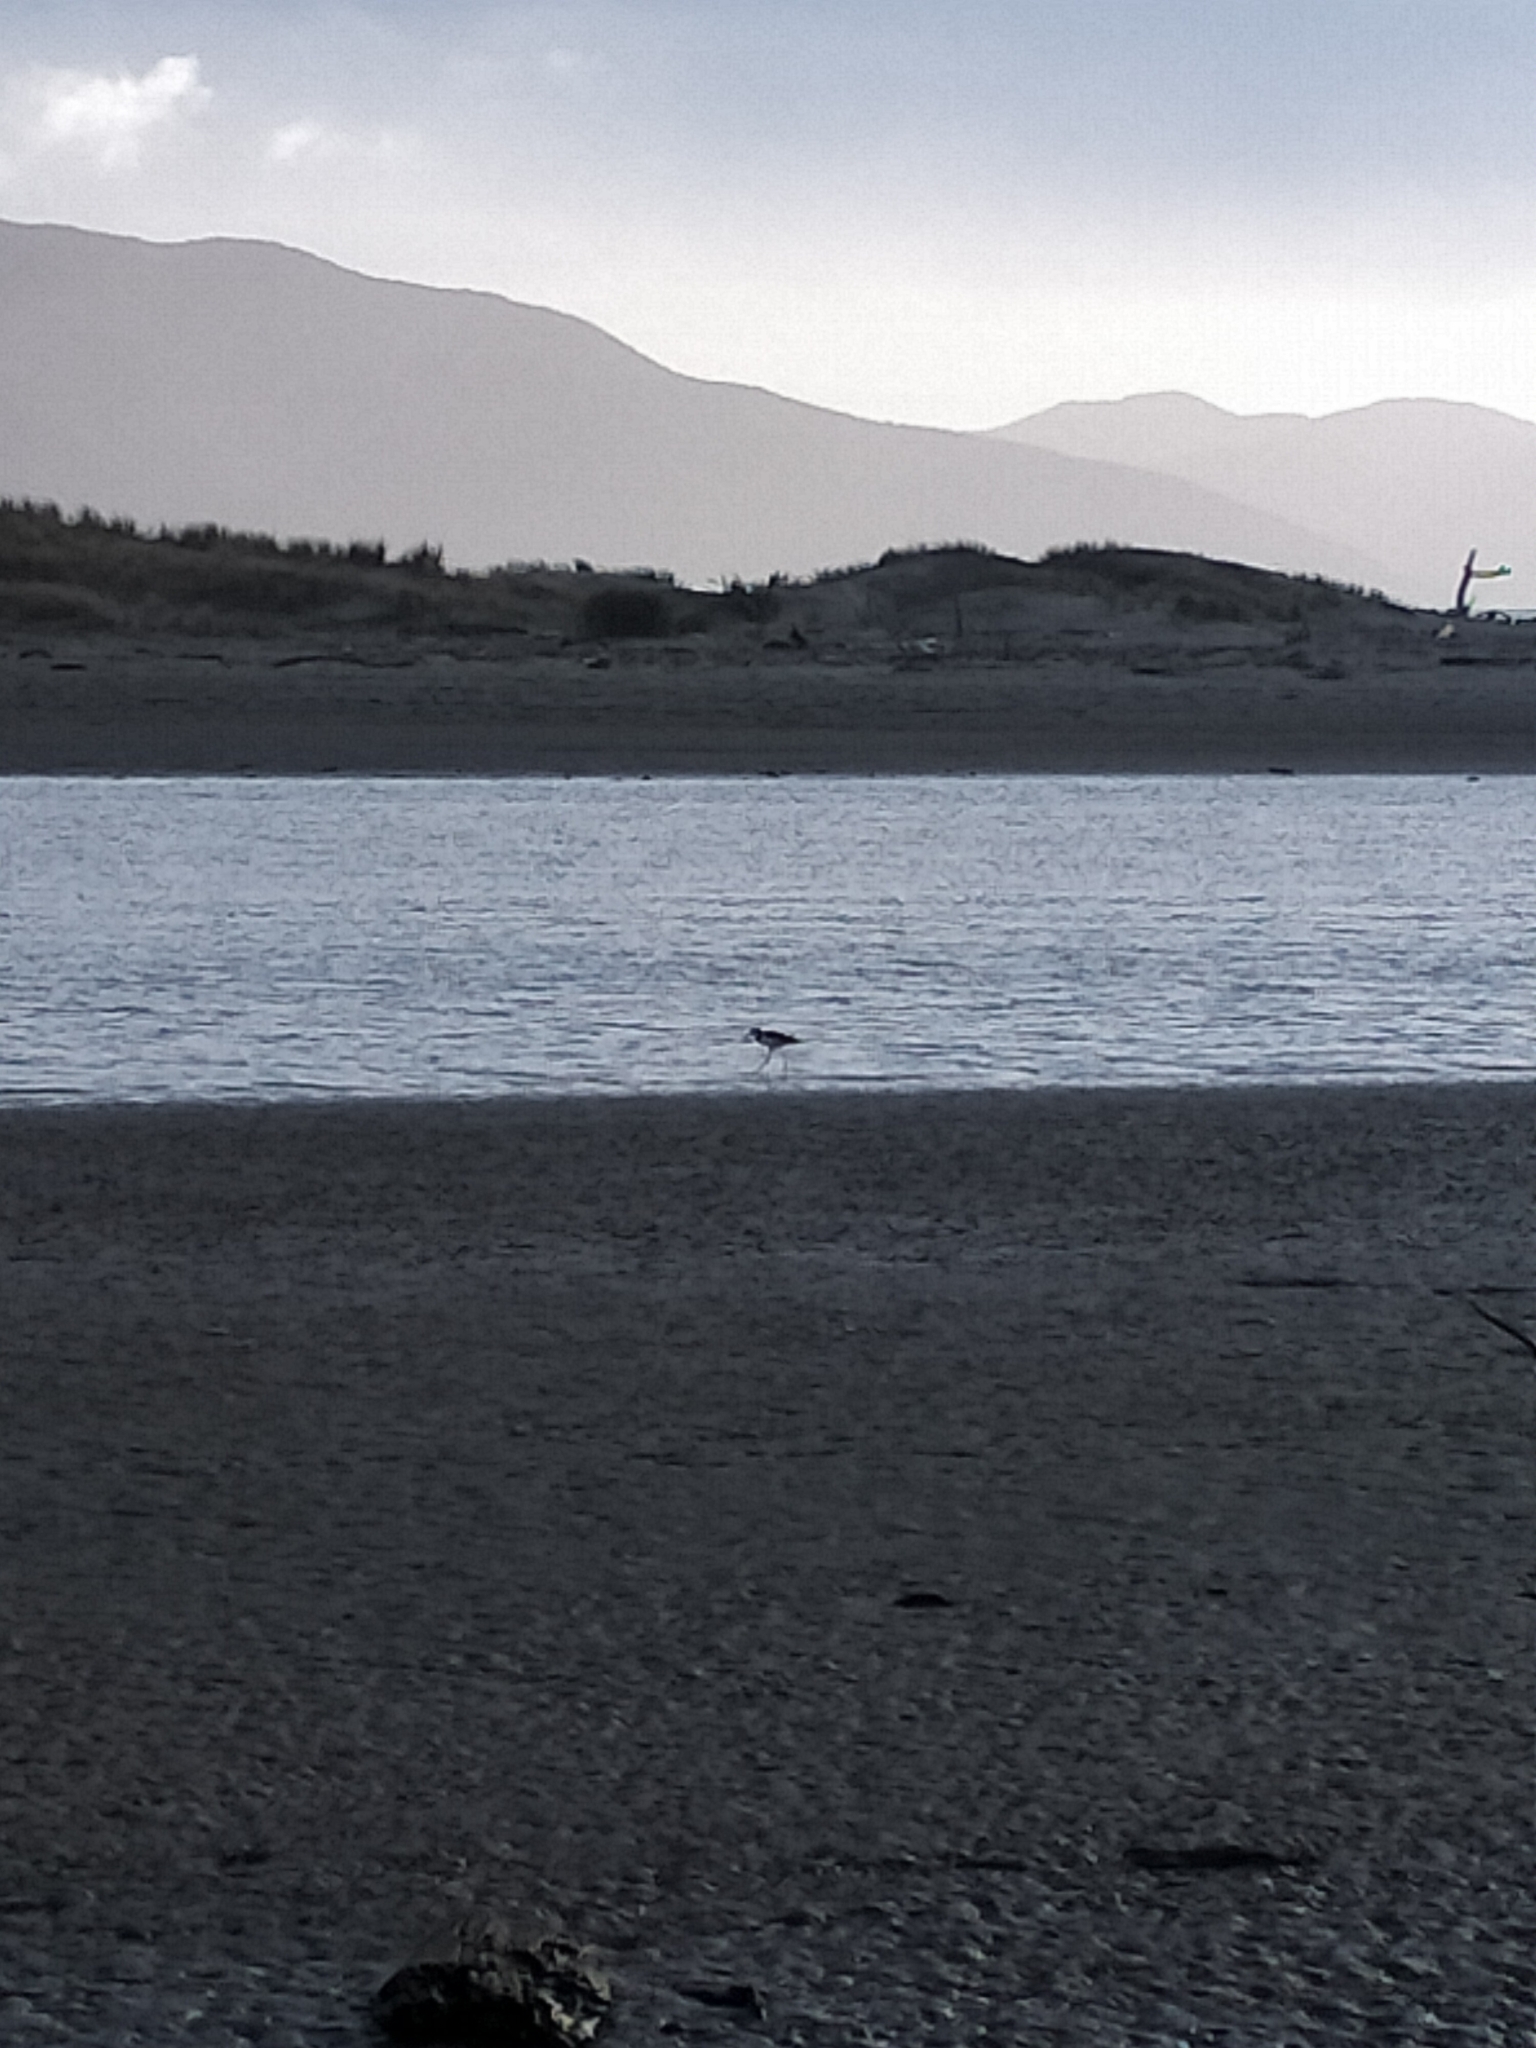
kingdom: Animalia
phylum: Chordata
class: Aves
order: Charadriiformes
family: Recurvirostridae
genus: Himantopus
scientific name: Himantopus leucocephalus
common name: White-headed stilt
